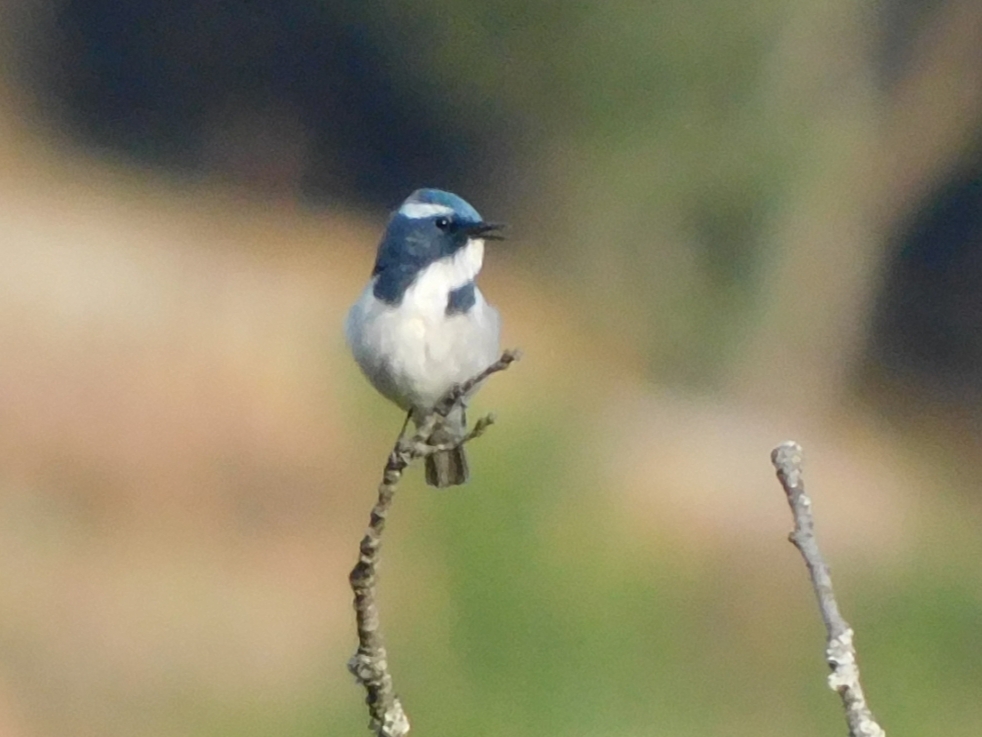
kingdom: Animalia
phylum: Chordata
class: Aves
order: Passeriformes
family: Muscicapidae
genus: Ficedula
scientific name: Ficedula superciliaris
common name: Ultramarine flycatcher
